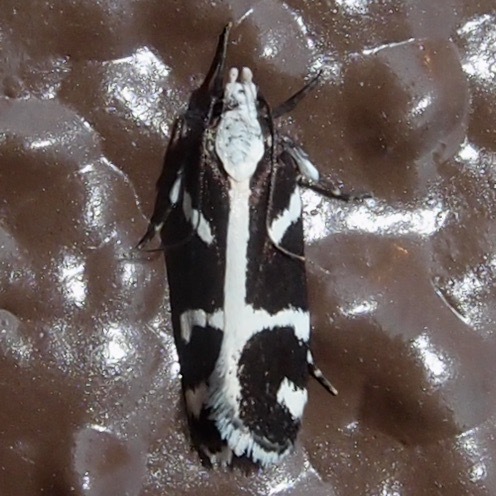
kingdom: Animalia
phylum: Arthropoda
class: Insecta
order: Lepidoptera
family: Gelechiidae
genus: Epilechia
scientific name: Epilechia catalinella
